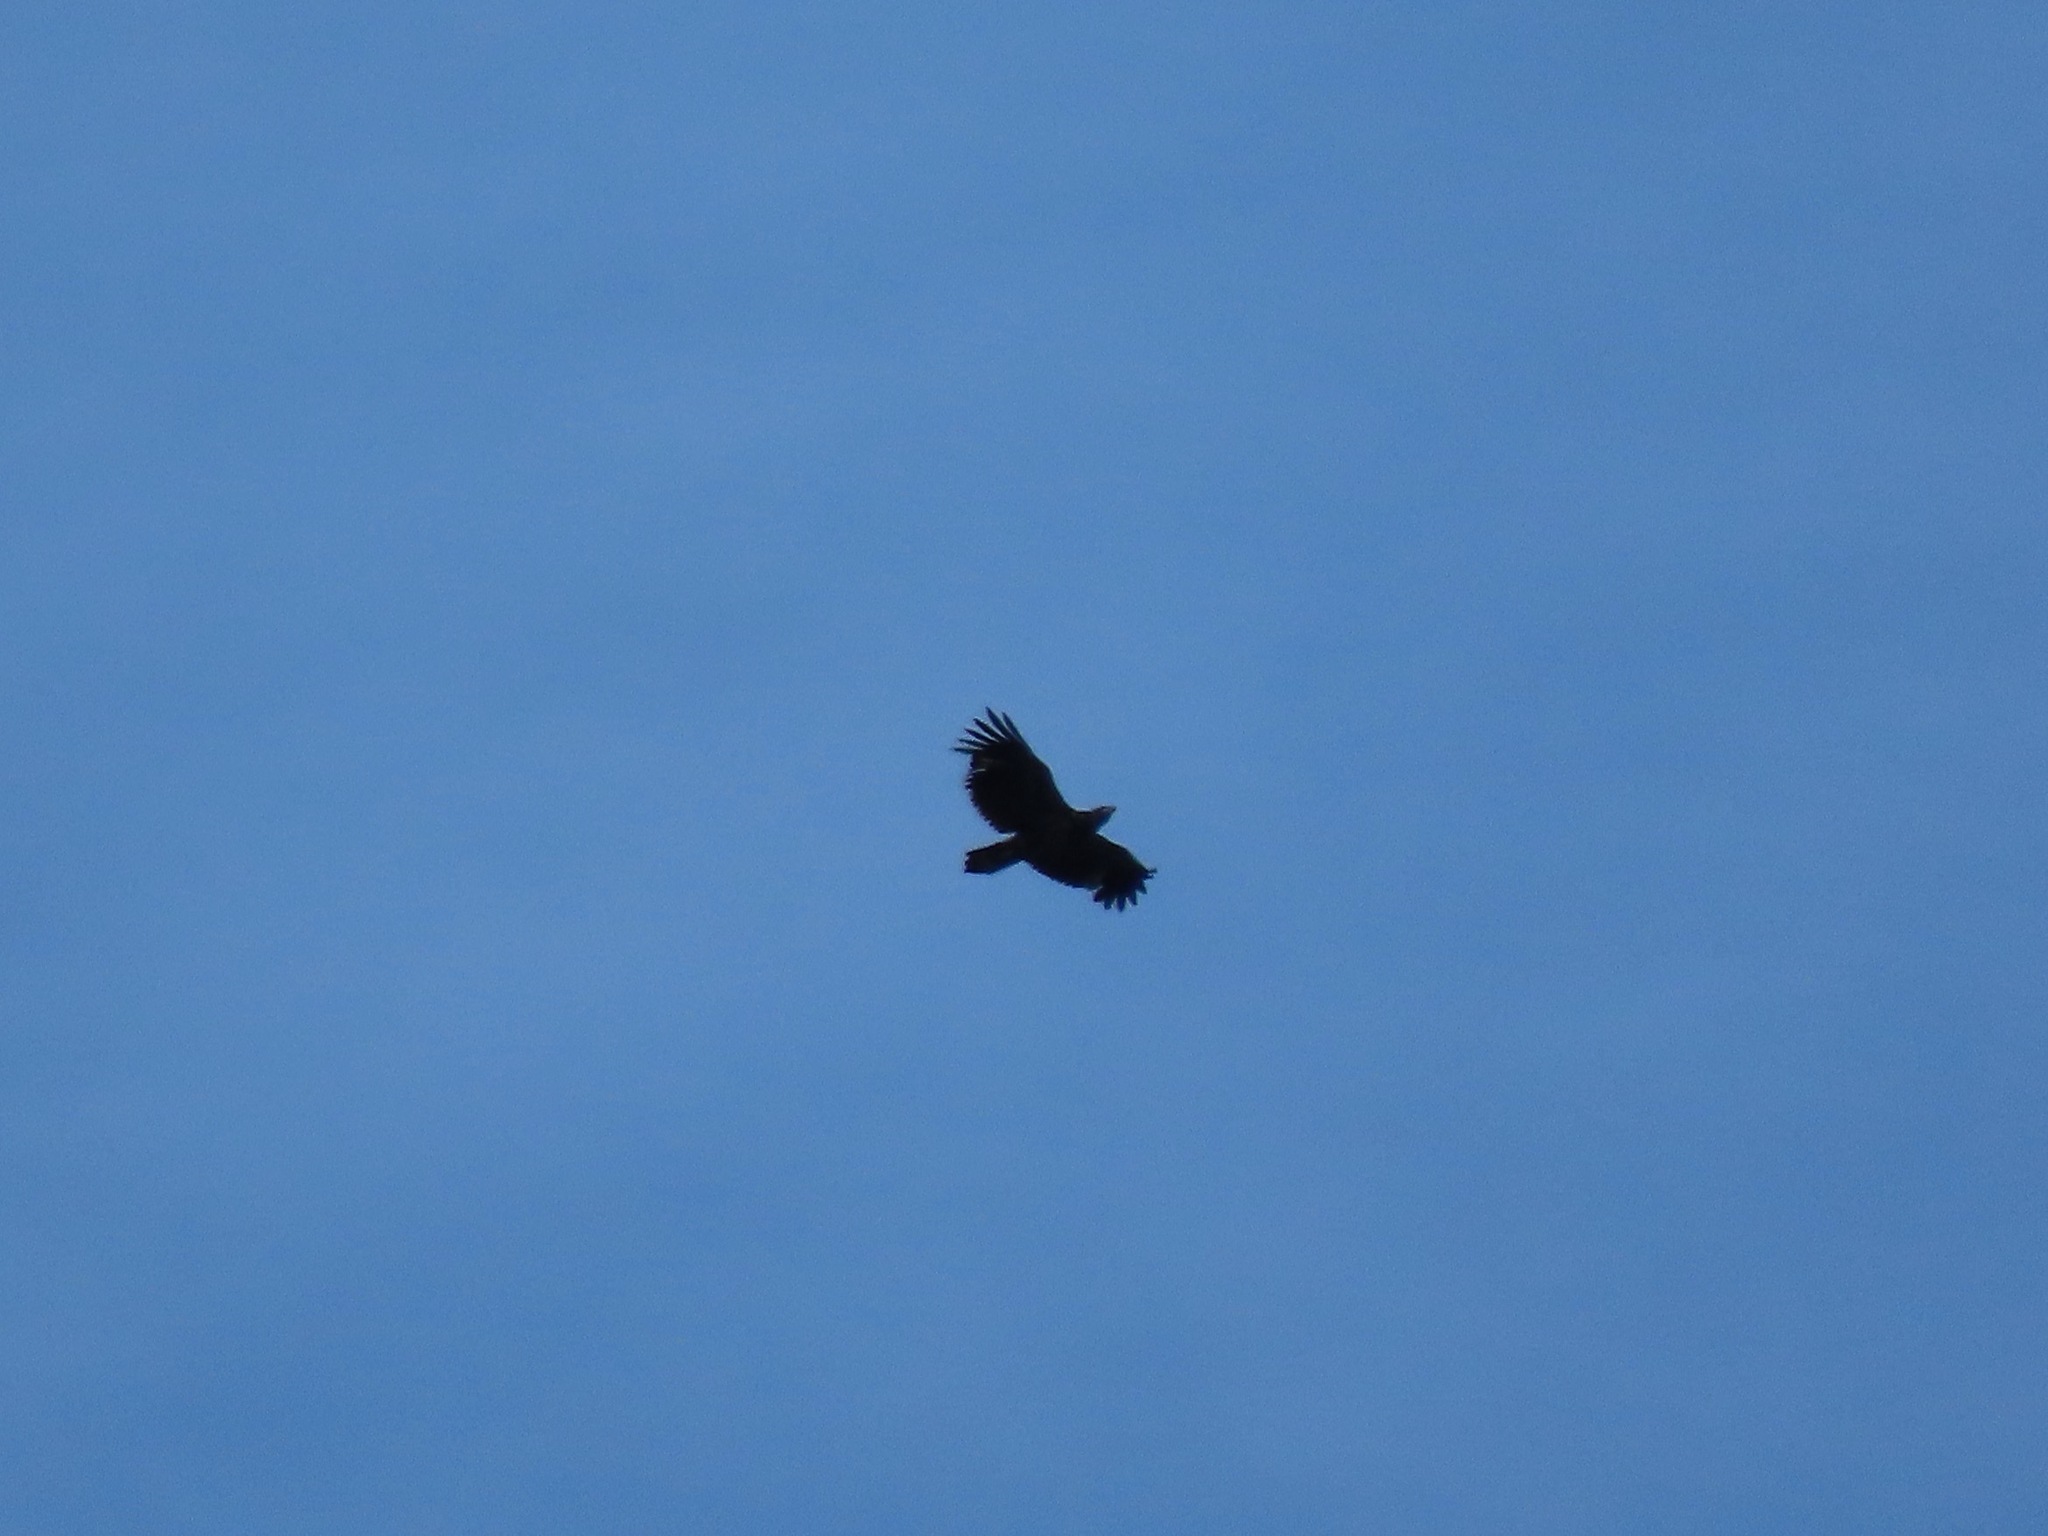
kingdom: Animalia
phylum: Chordata
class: Aves
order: Accipitriformes
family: Accipitridae
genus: Haliaeetus
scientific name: Haliaeetus leucocephalus
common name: Bald eagle
